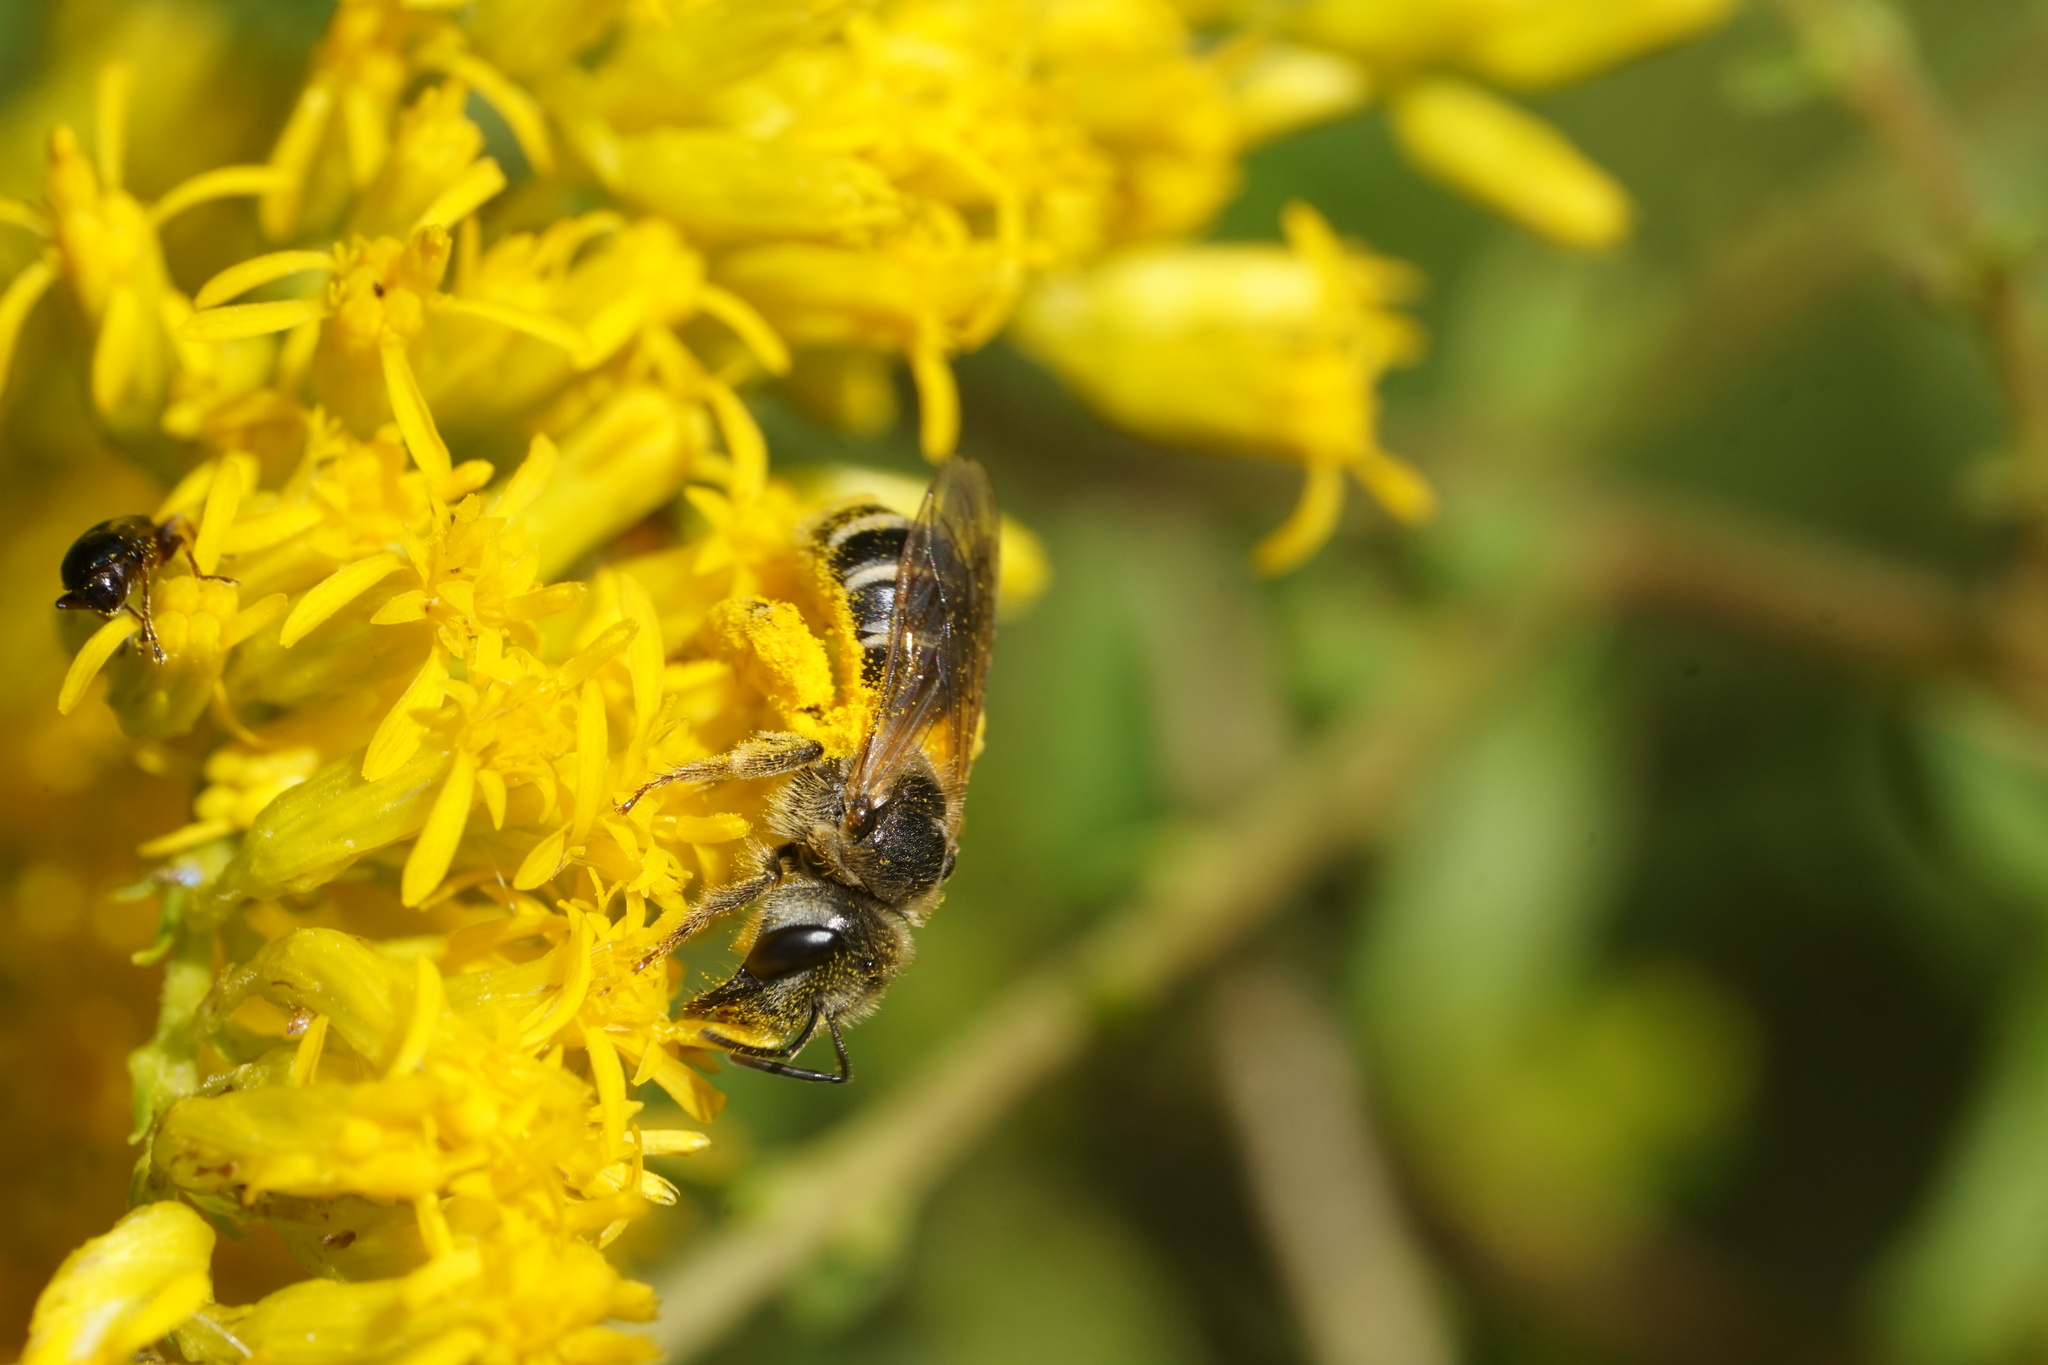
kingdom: Animalia
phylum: Arthropoda
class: Insecta
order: Hymenoptera
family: Halictidae
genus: Halictus
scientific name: Halictus ligatus
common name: Ligated furrow bee
